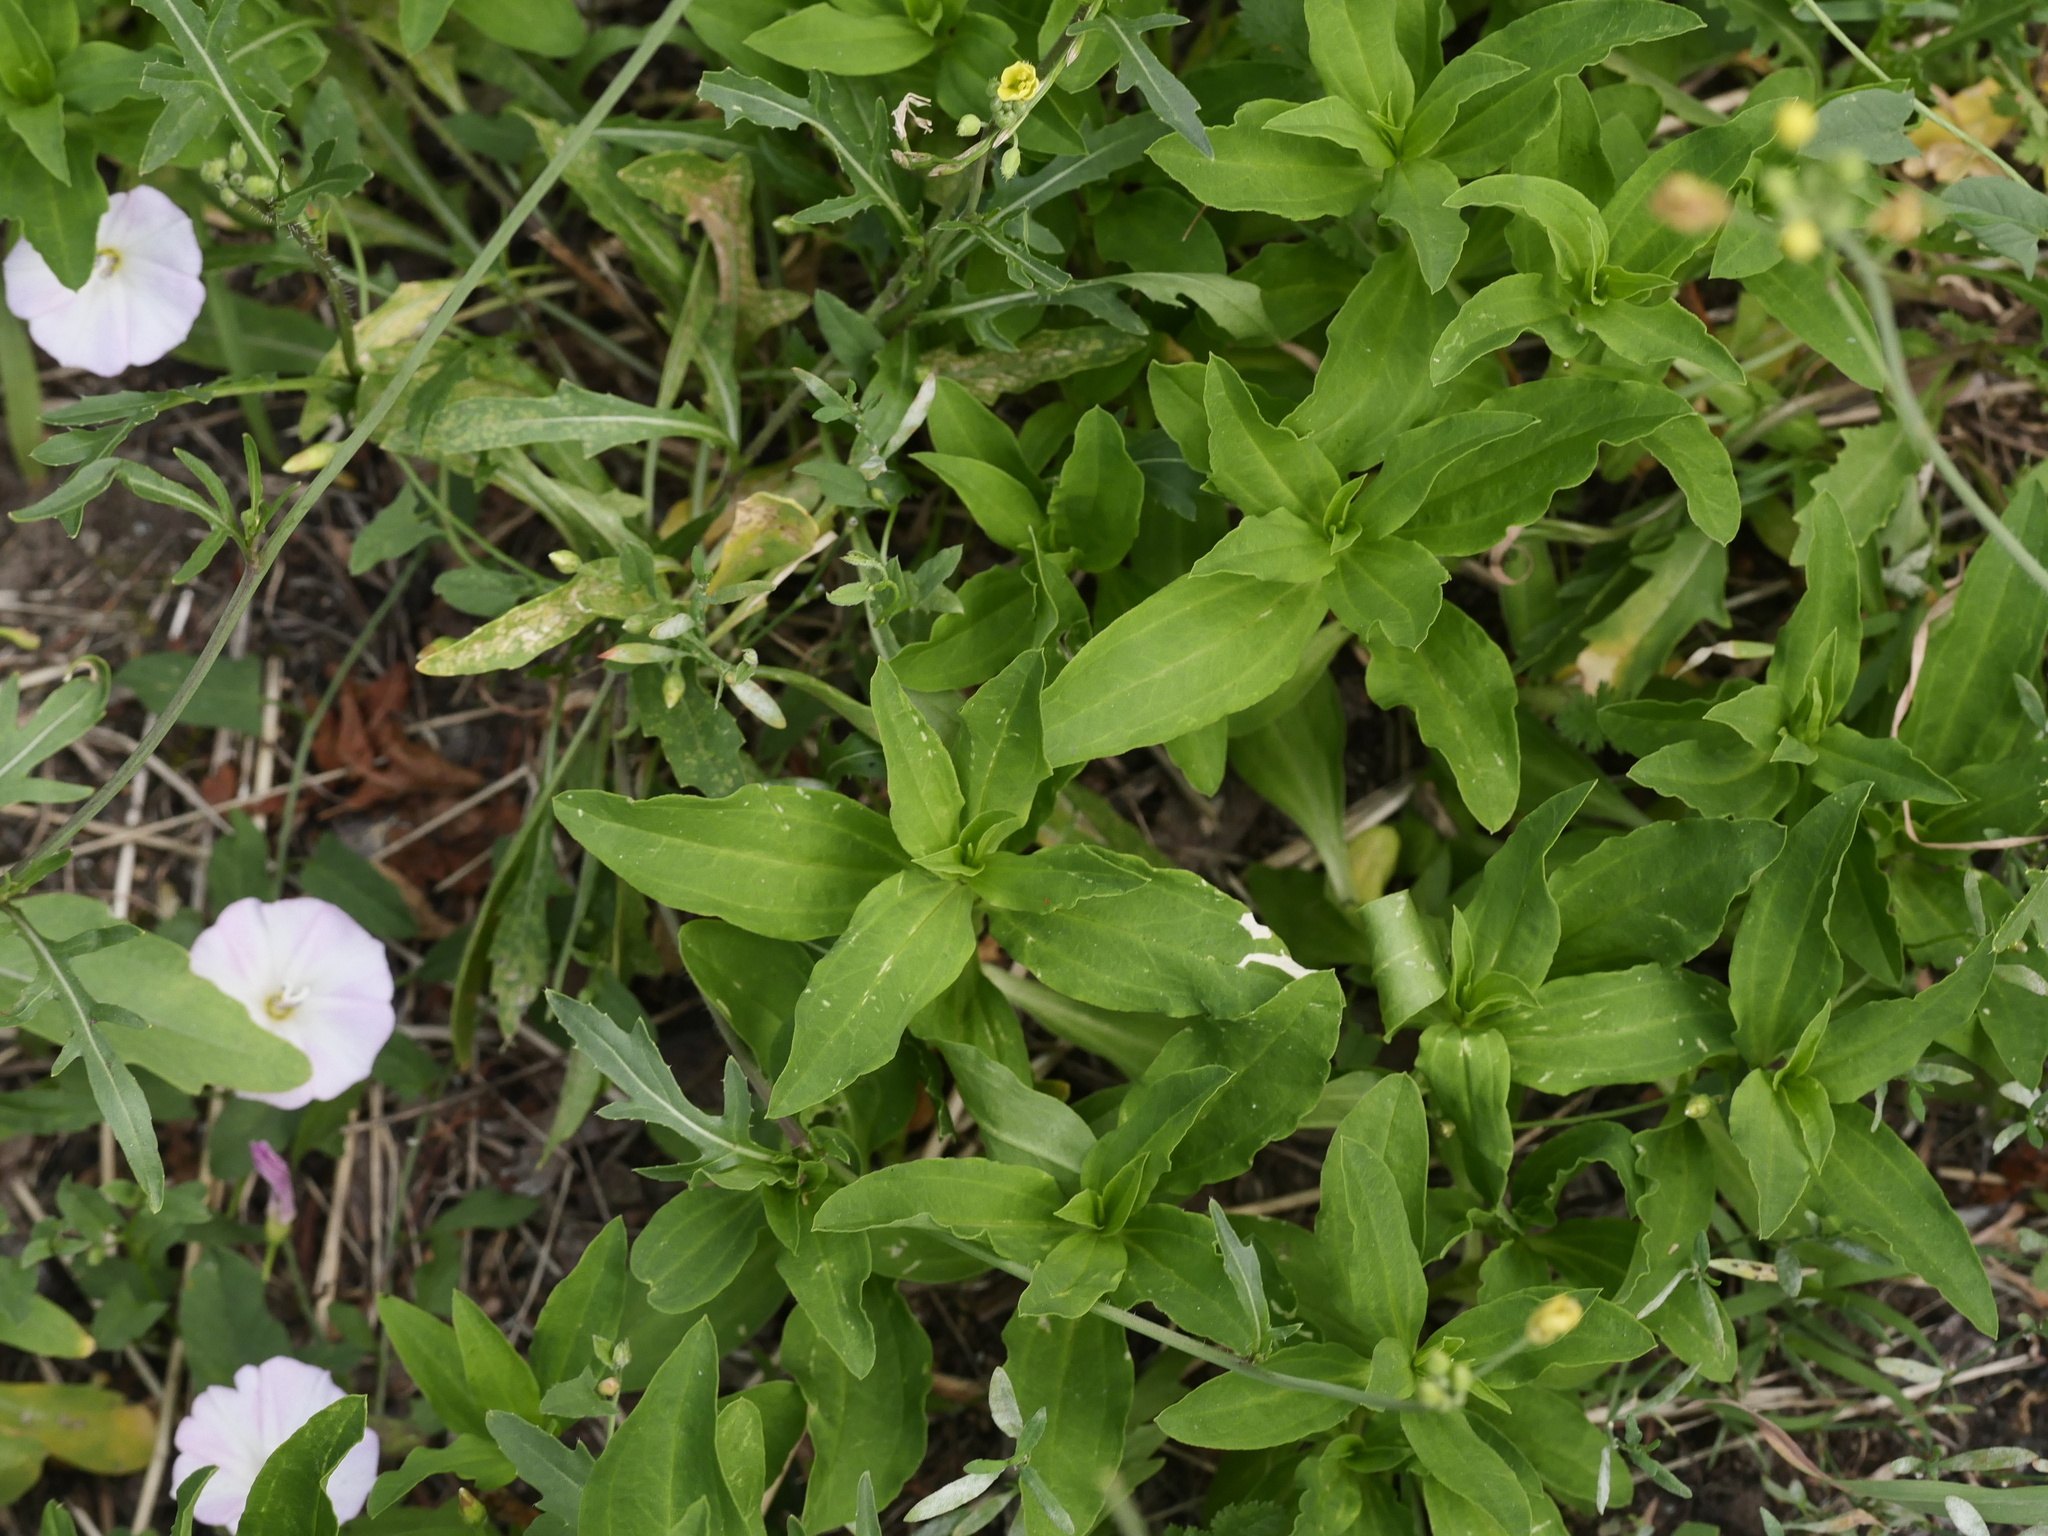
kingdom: Plantae
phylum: Tracheophyta
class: Magnoliopsida
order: Caryophyllales
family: Caryophyllaceae
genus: Saponaria
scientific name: Saponaria officinalis
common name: Soapwort
